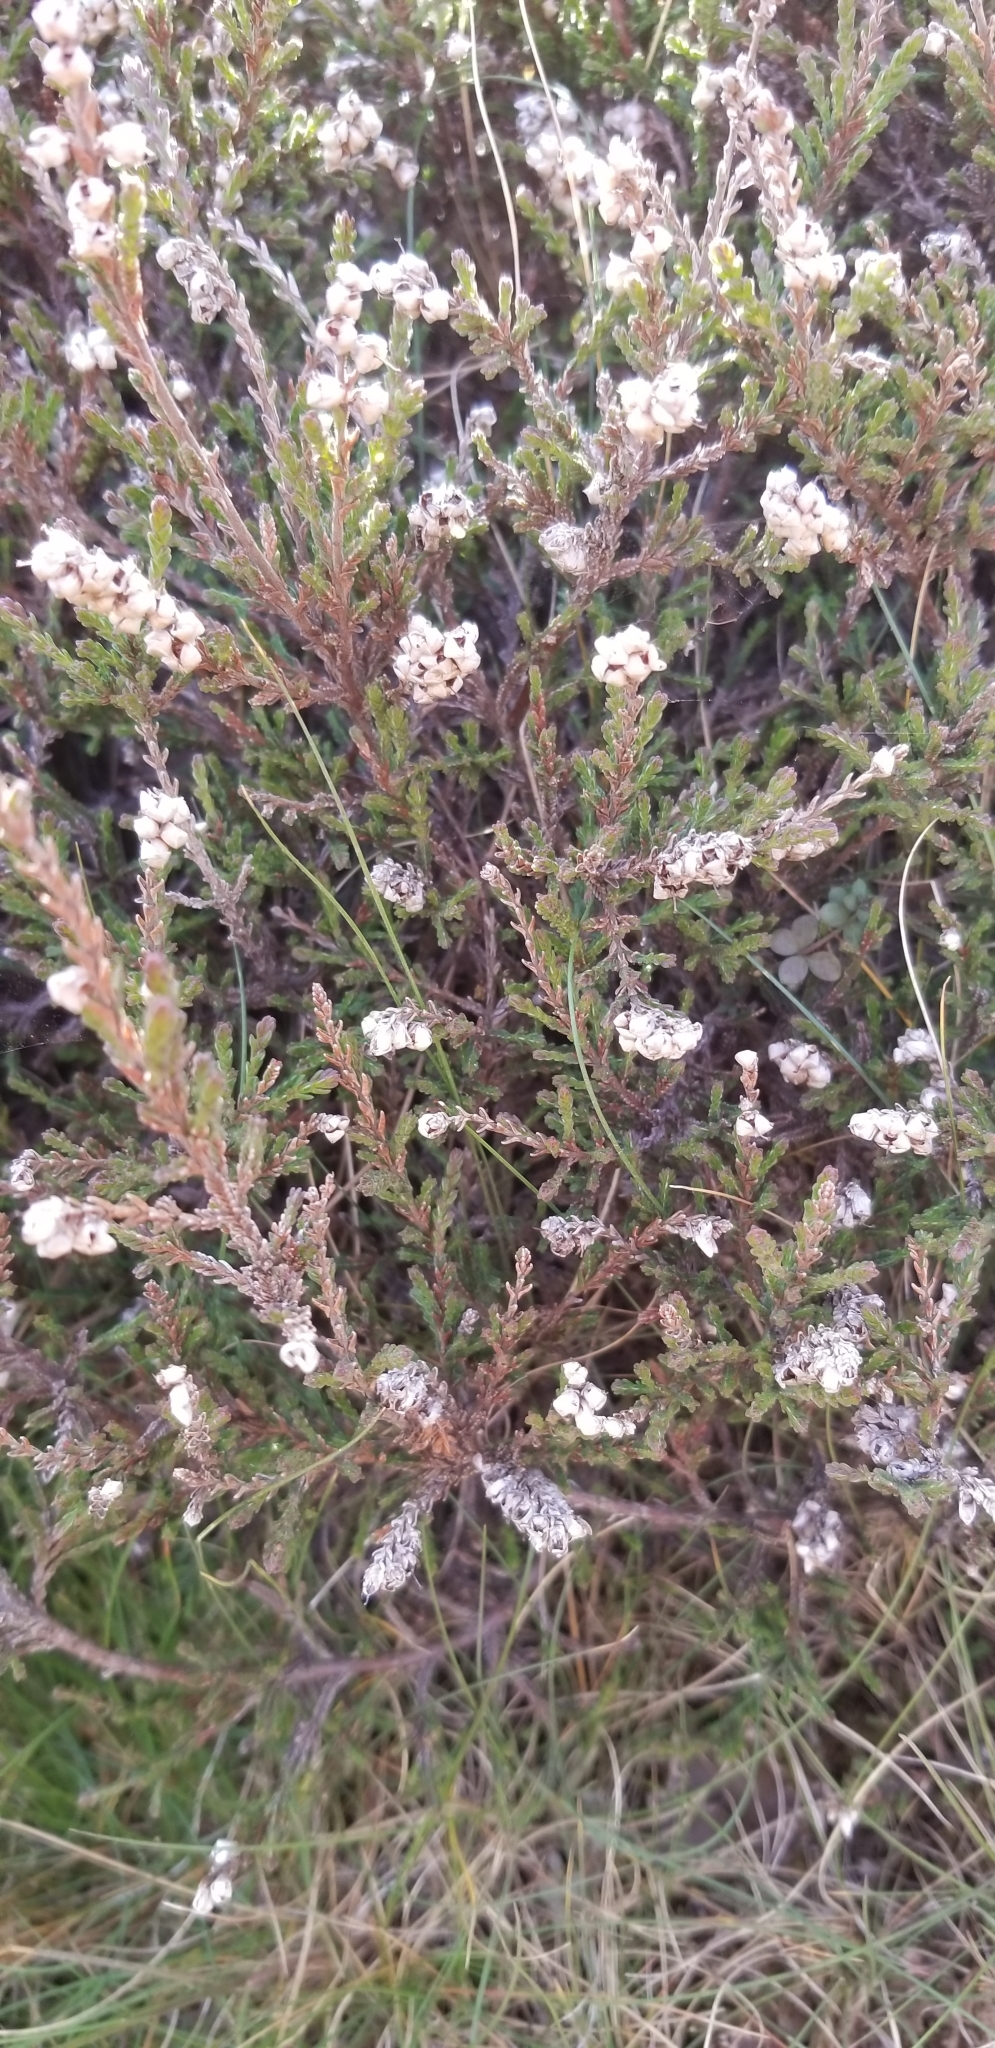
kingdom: Plantae
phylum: Tracheophyta
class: Magnoliopsida
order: Ericales
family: Ericaceae
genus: Calluna
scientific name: Calluna vulgaris
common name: Heather
